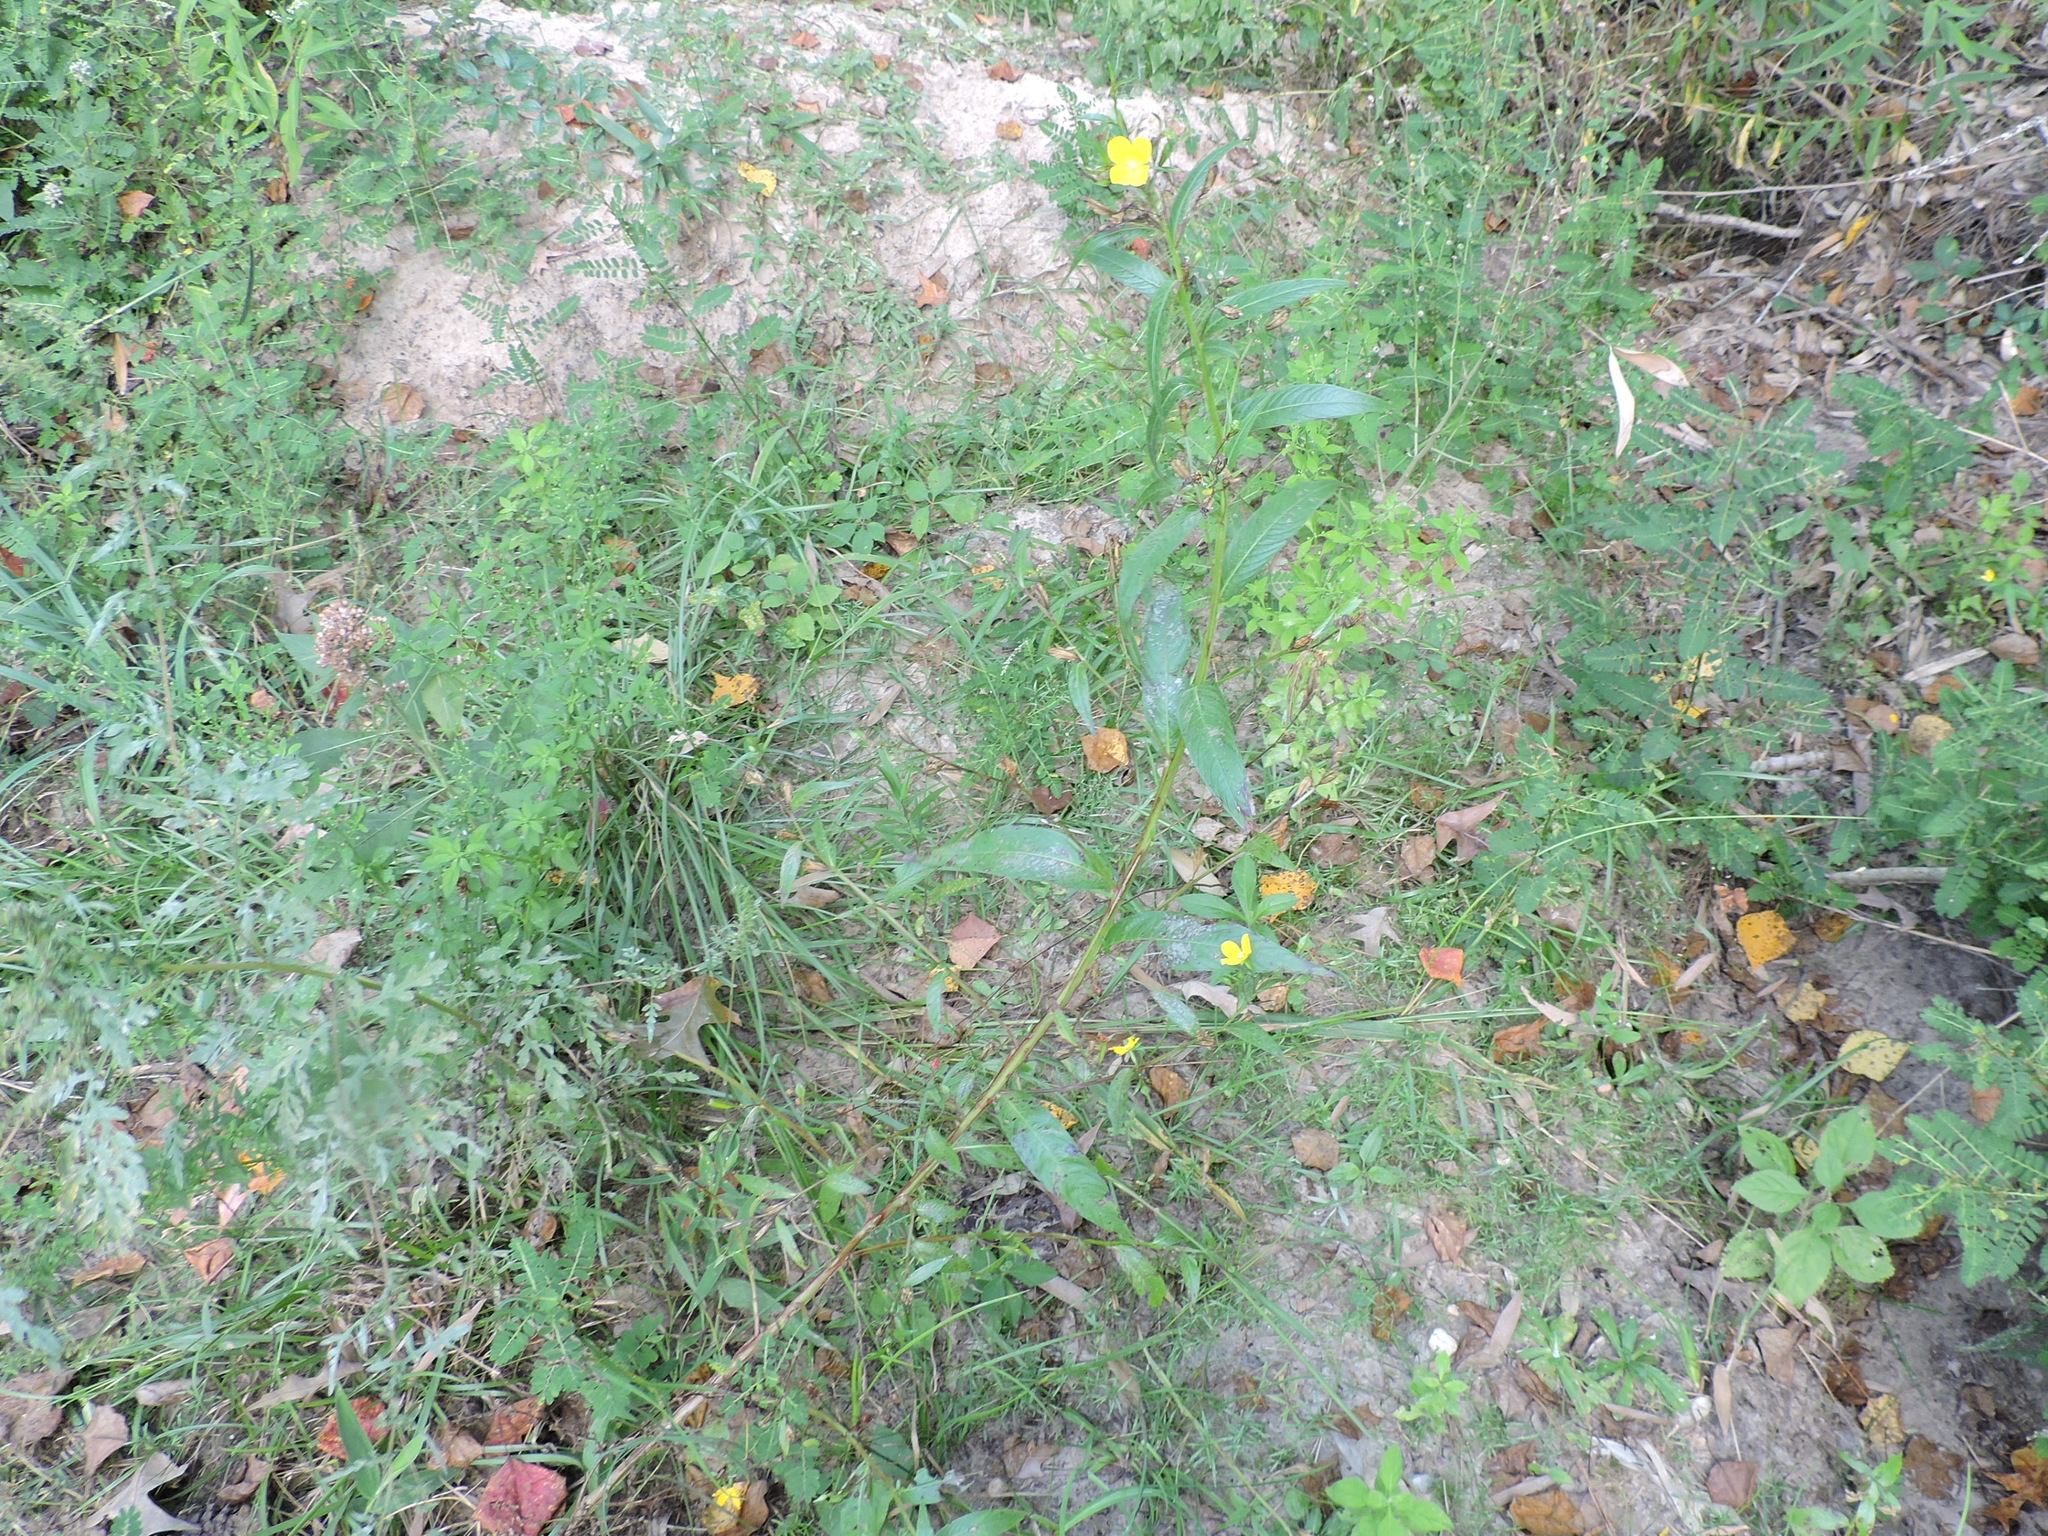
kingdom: Plantae
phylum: Tracheophyta
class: Magnoliopsida
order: Myrtales
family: Onagraceae
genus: Ludwigia
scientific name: Ludwigia decurrens
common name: Winged water-primrose
